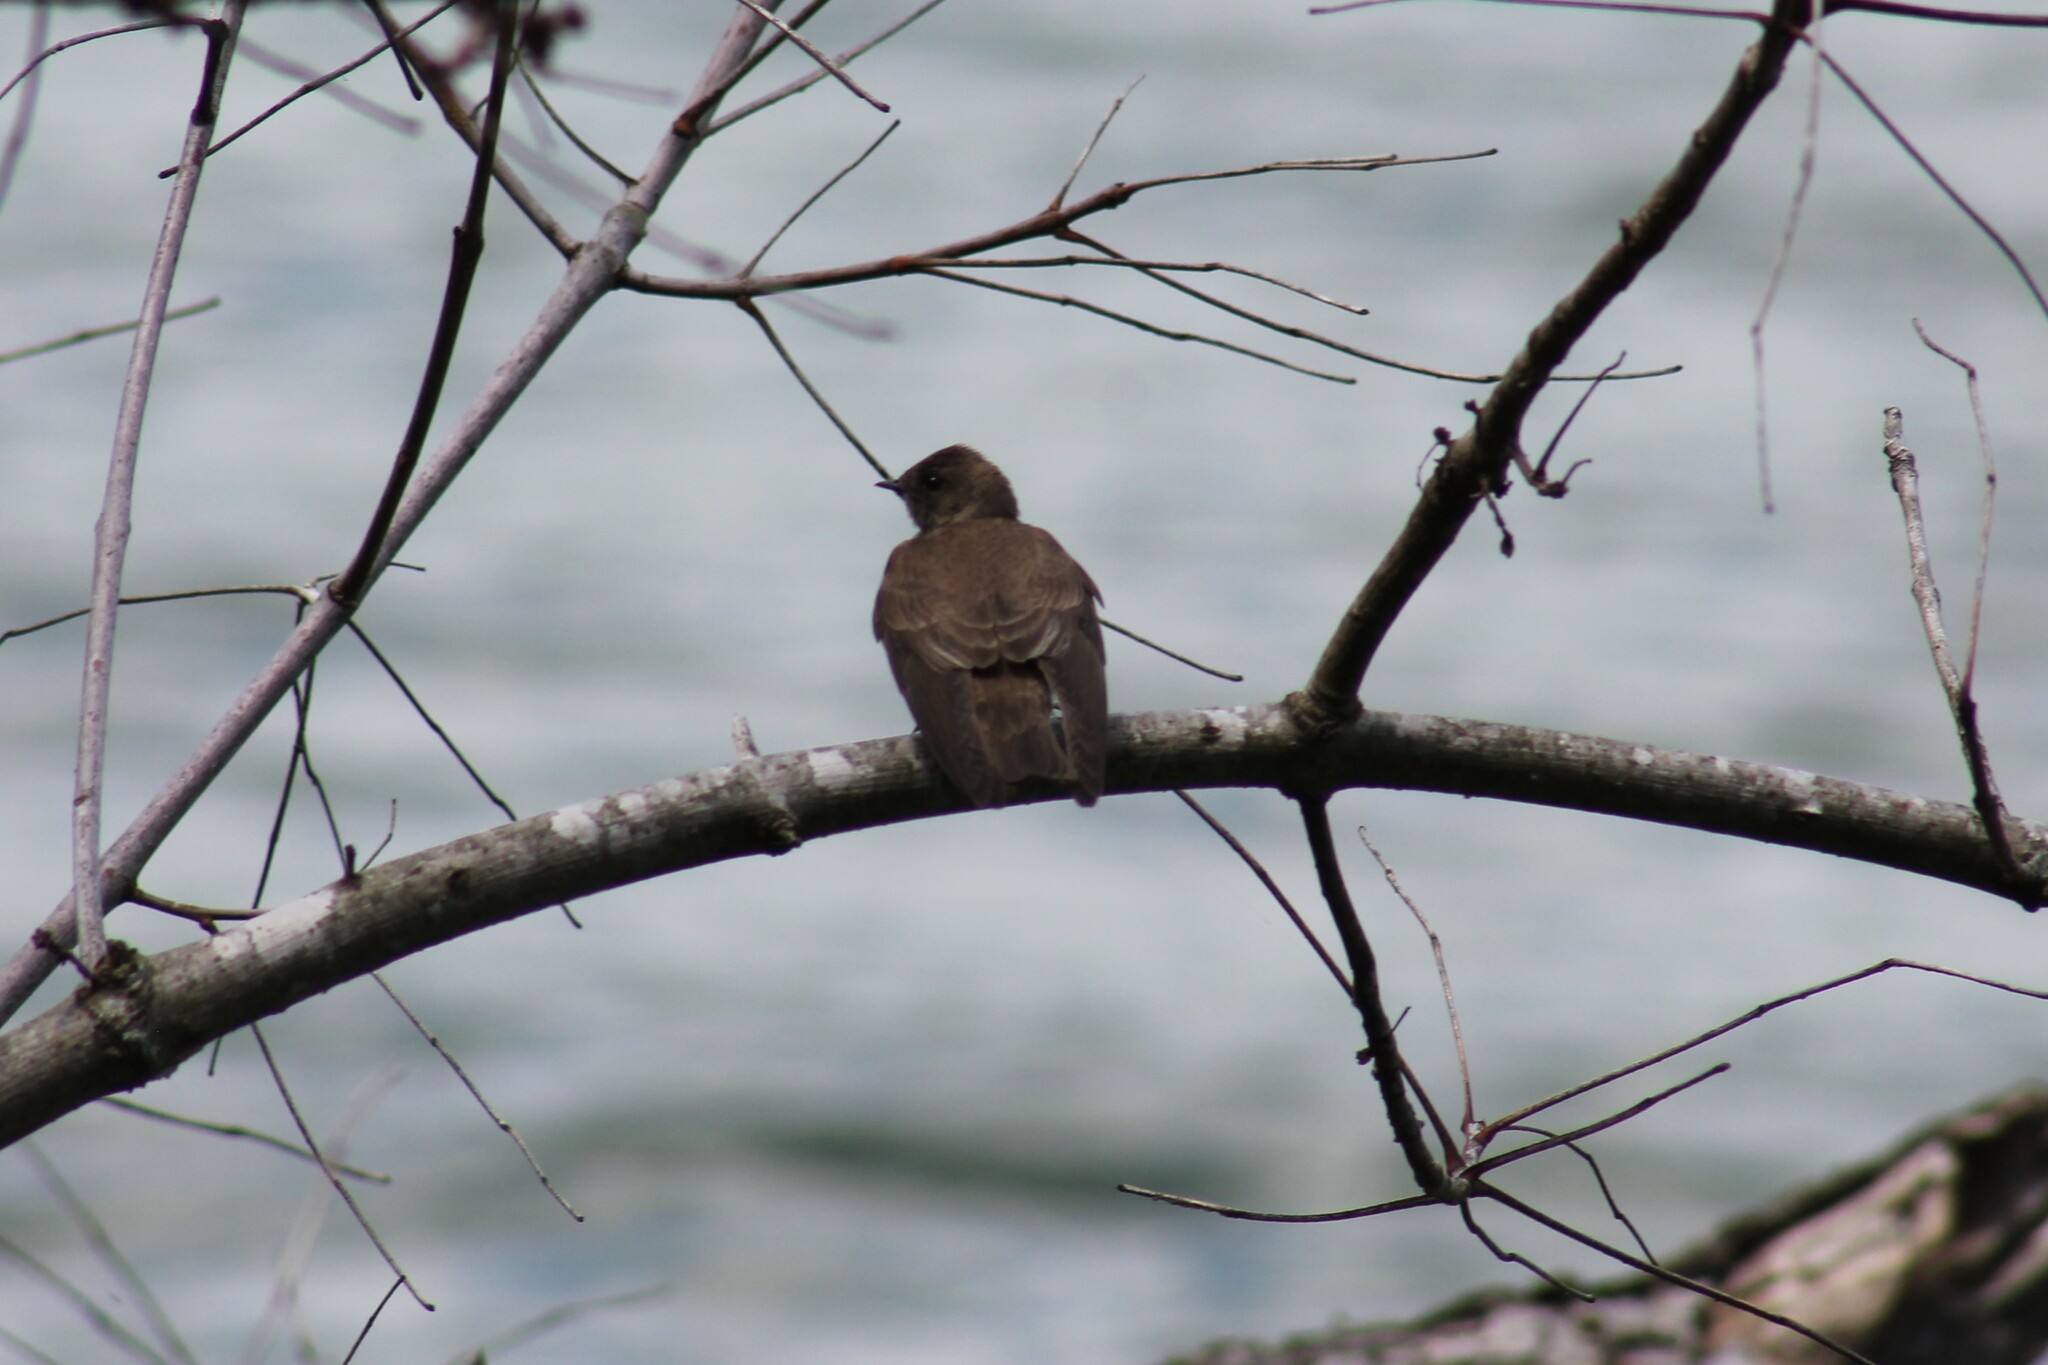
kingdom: Animalia
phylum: Chordata
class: Aves
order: Passeriformes
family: Hirundinidae
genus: Stelgidopteryx
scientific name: Stelgidopteryx serripennis
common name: Northern rough-winged swallow
